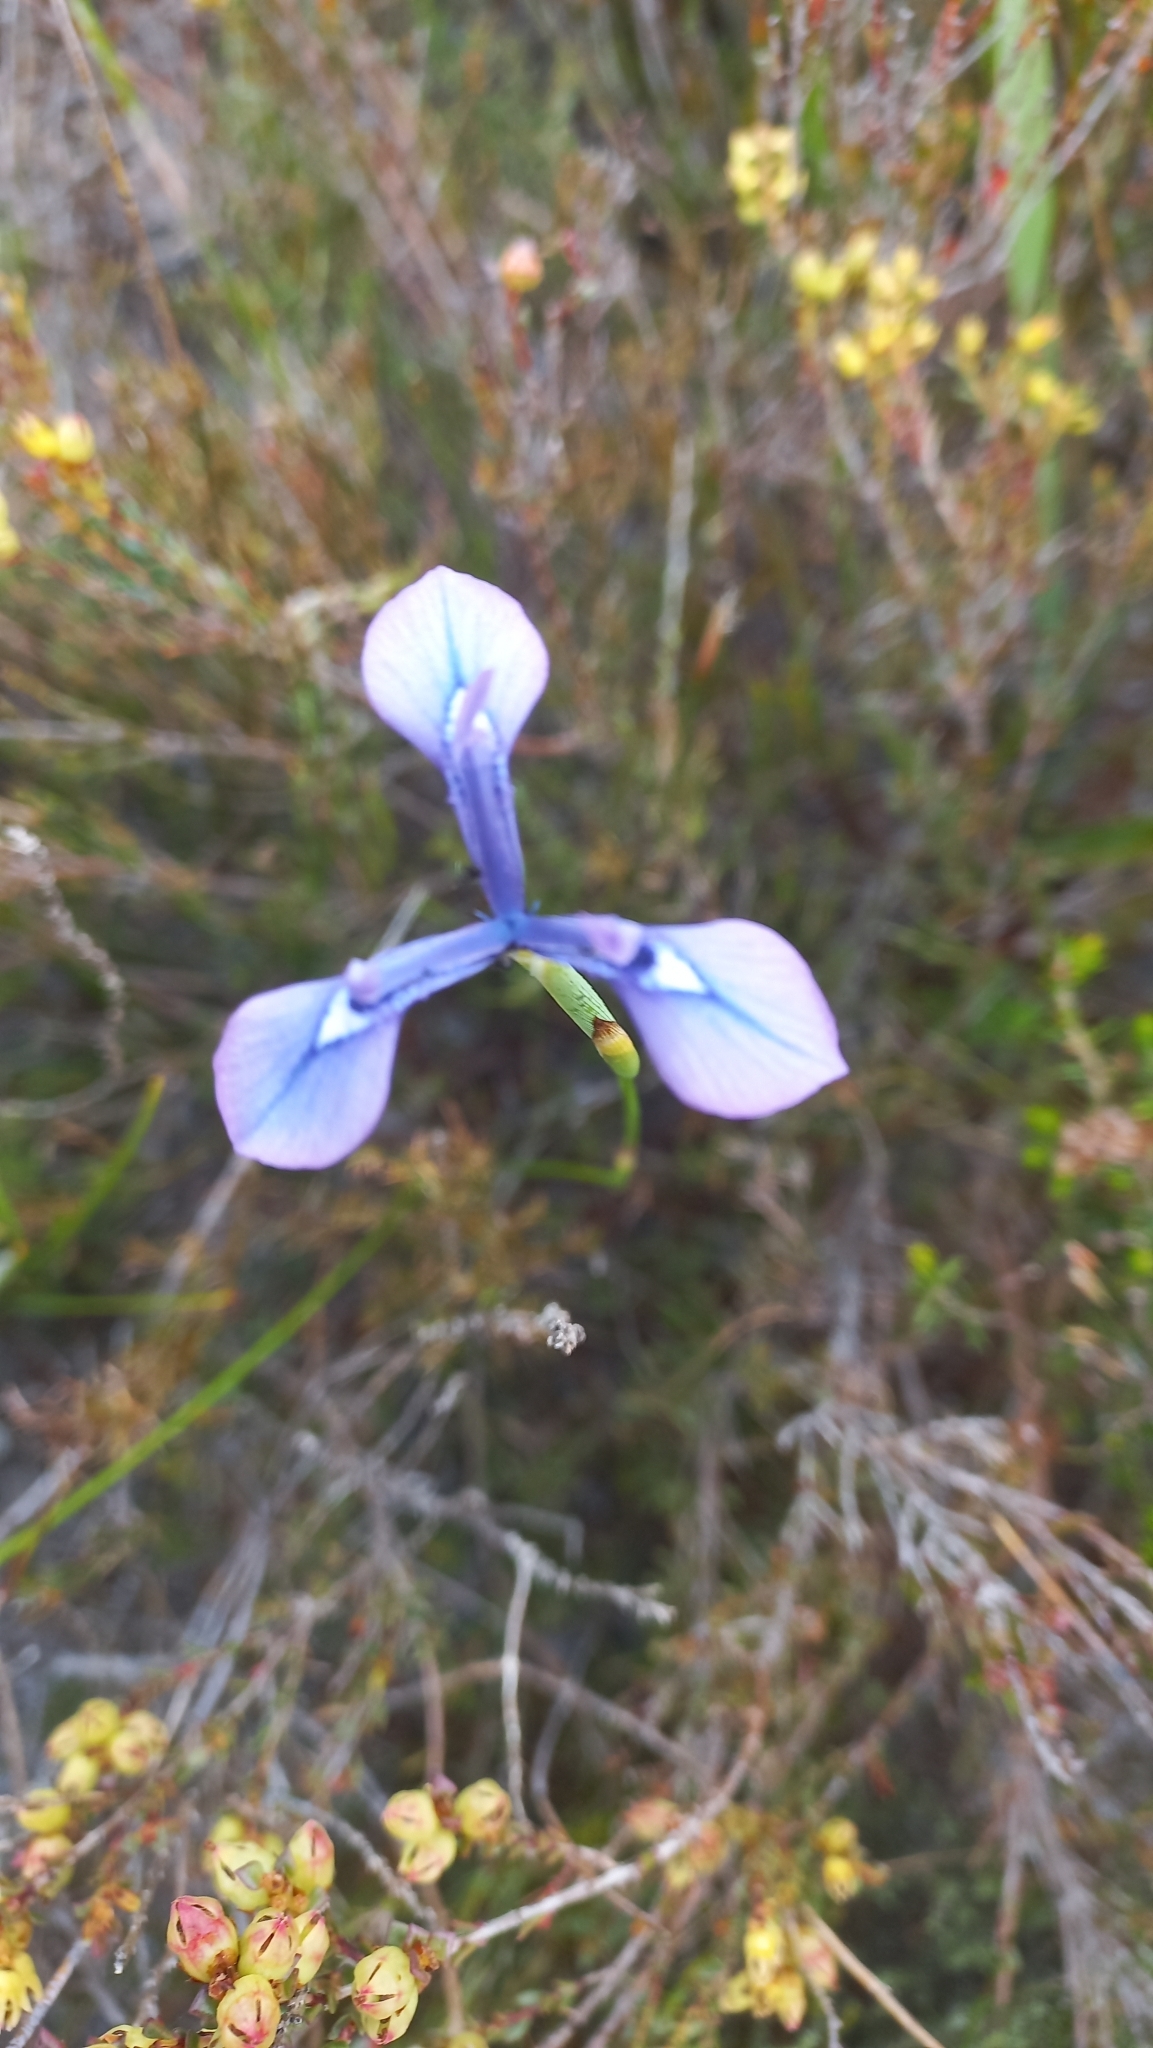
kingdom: Plantae
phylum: Tracheophyta
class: Liliopsida
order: Asparagales
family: Iridaceae
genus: Moraea
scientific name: Moraea tripetala
